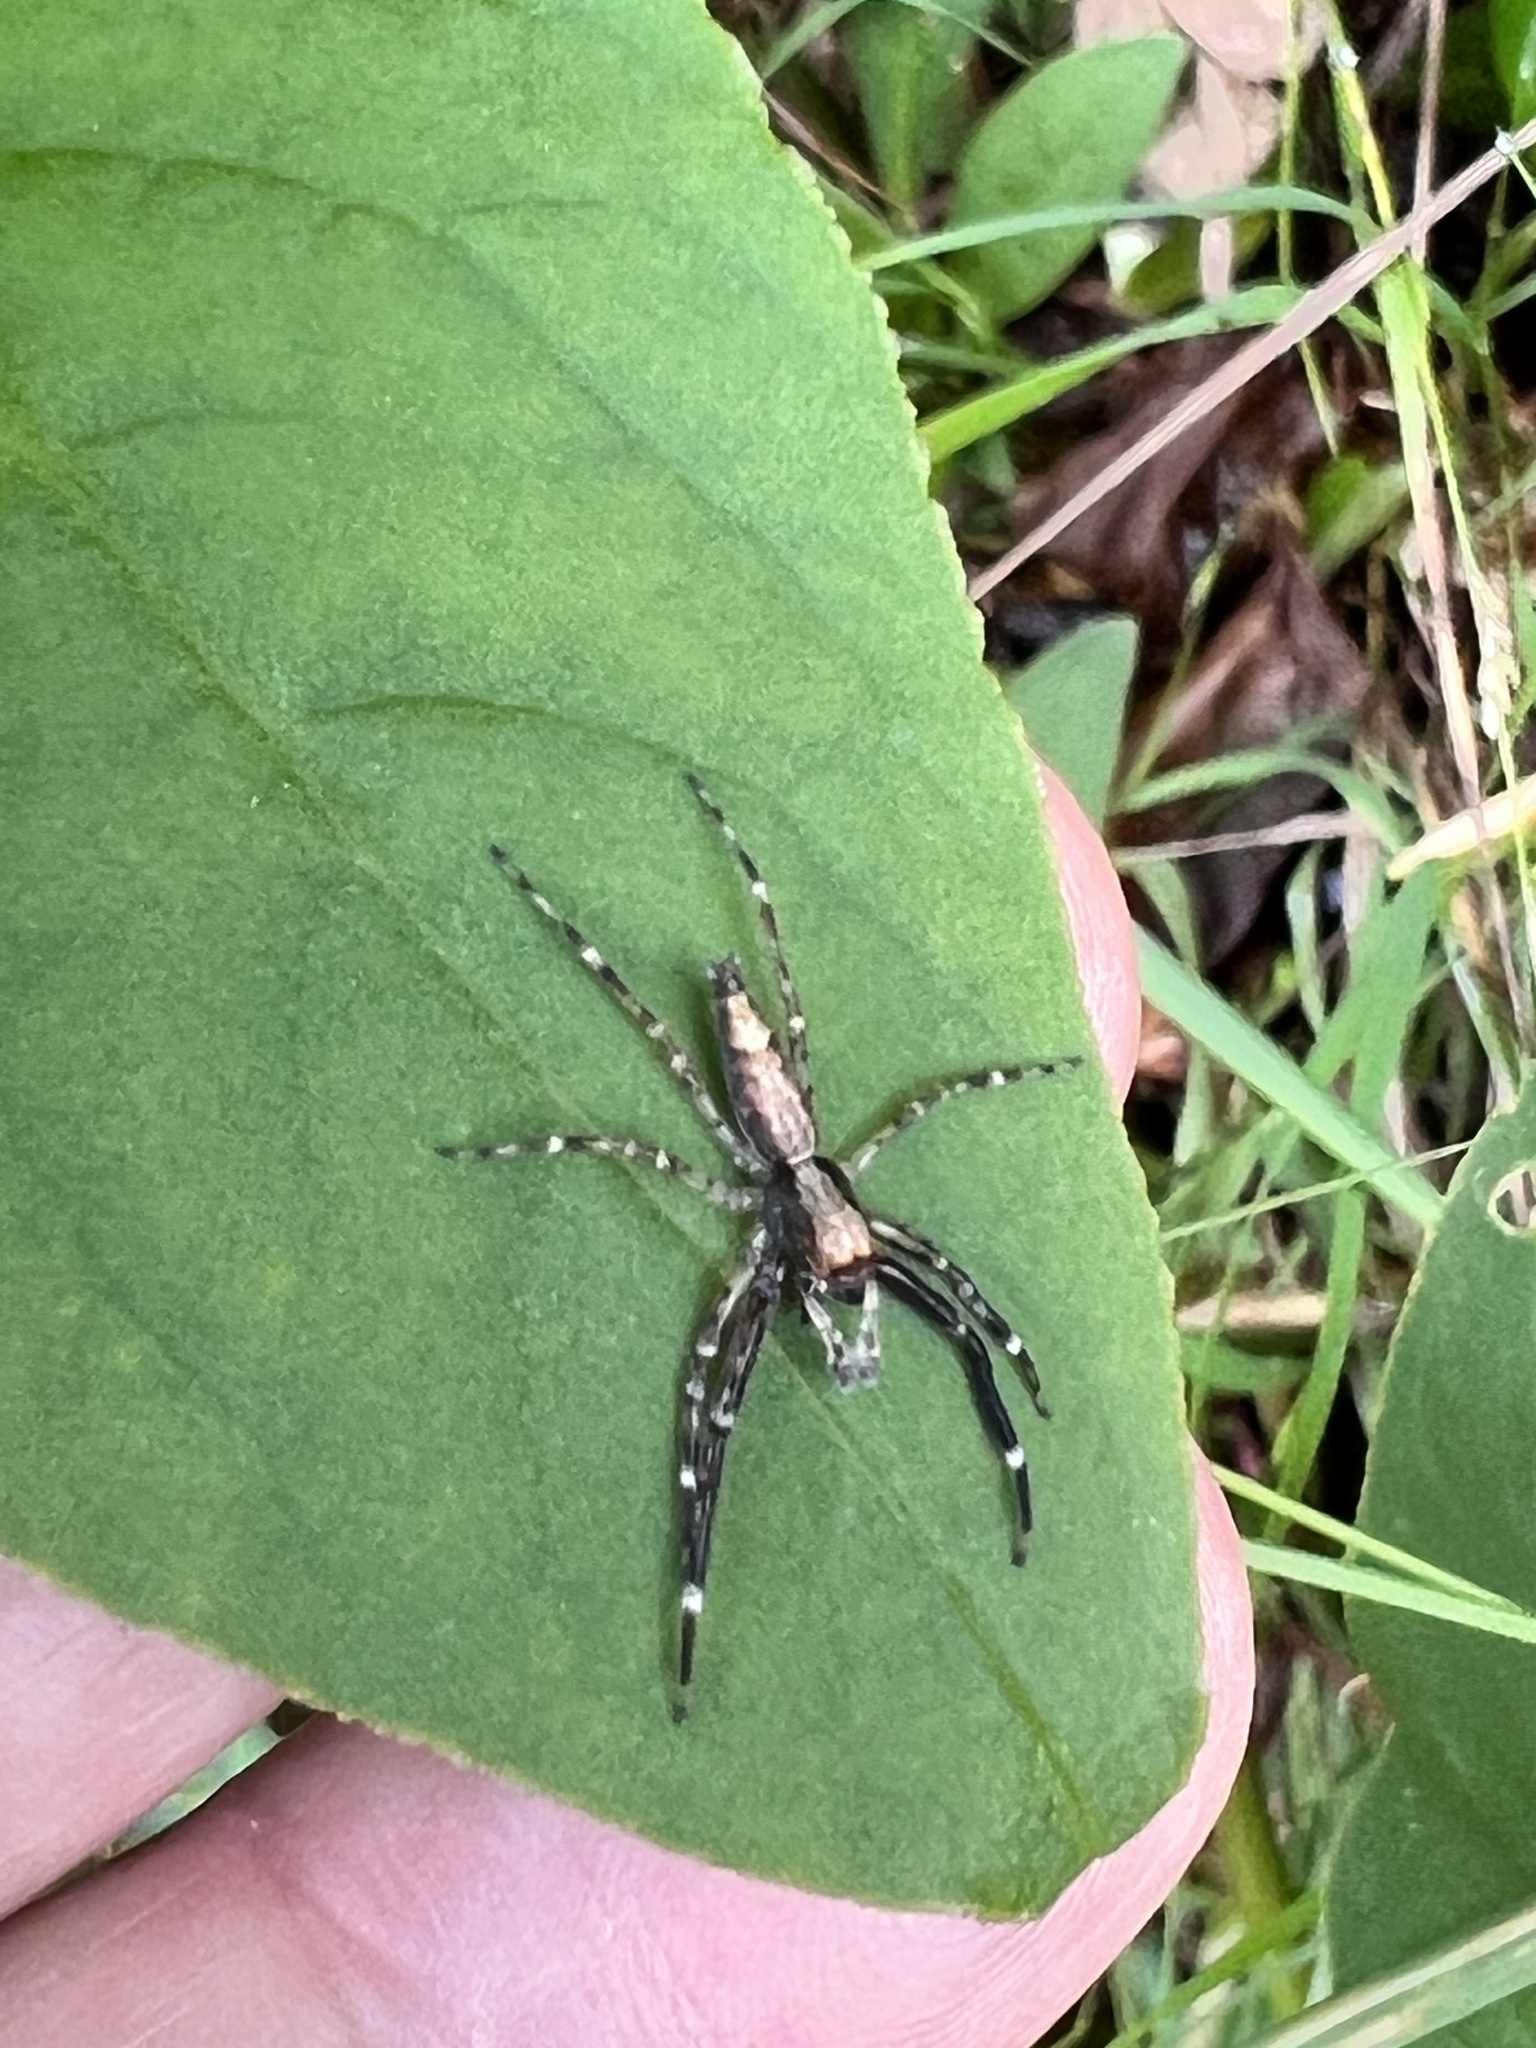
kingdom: Animalia
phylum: Arthropoda
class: Arachnida
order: Araneae
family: Salticidae
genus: Helpis
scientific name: Helpis minitabunda
